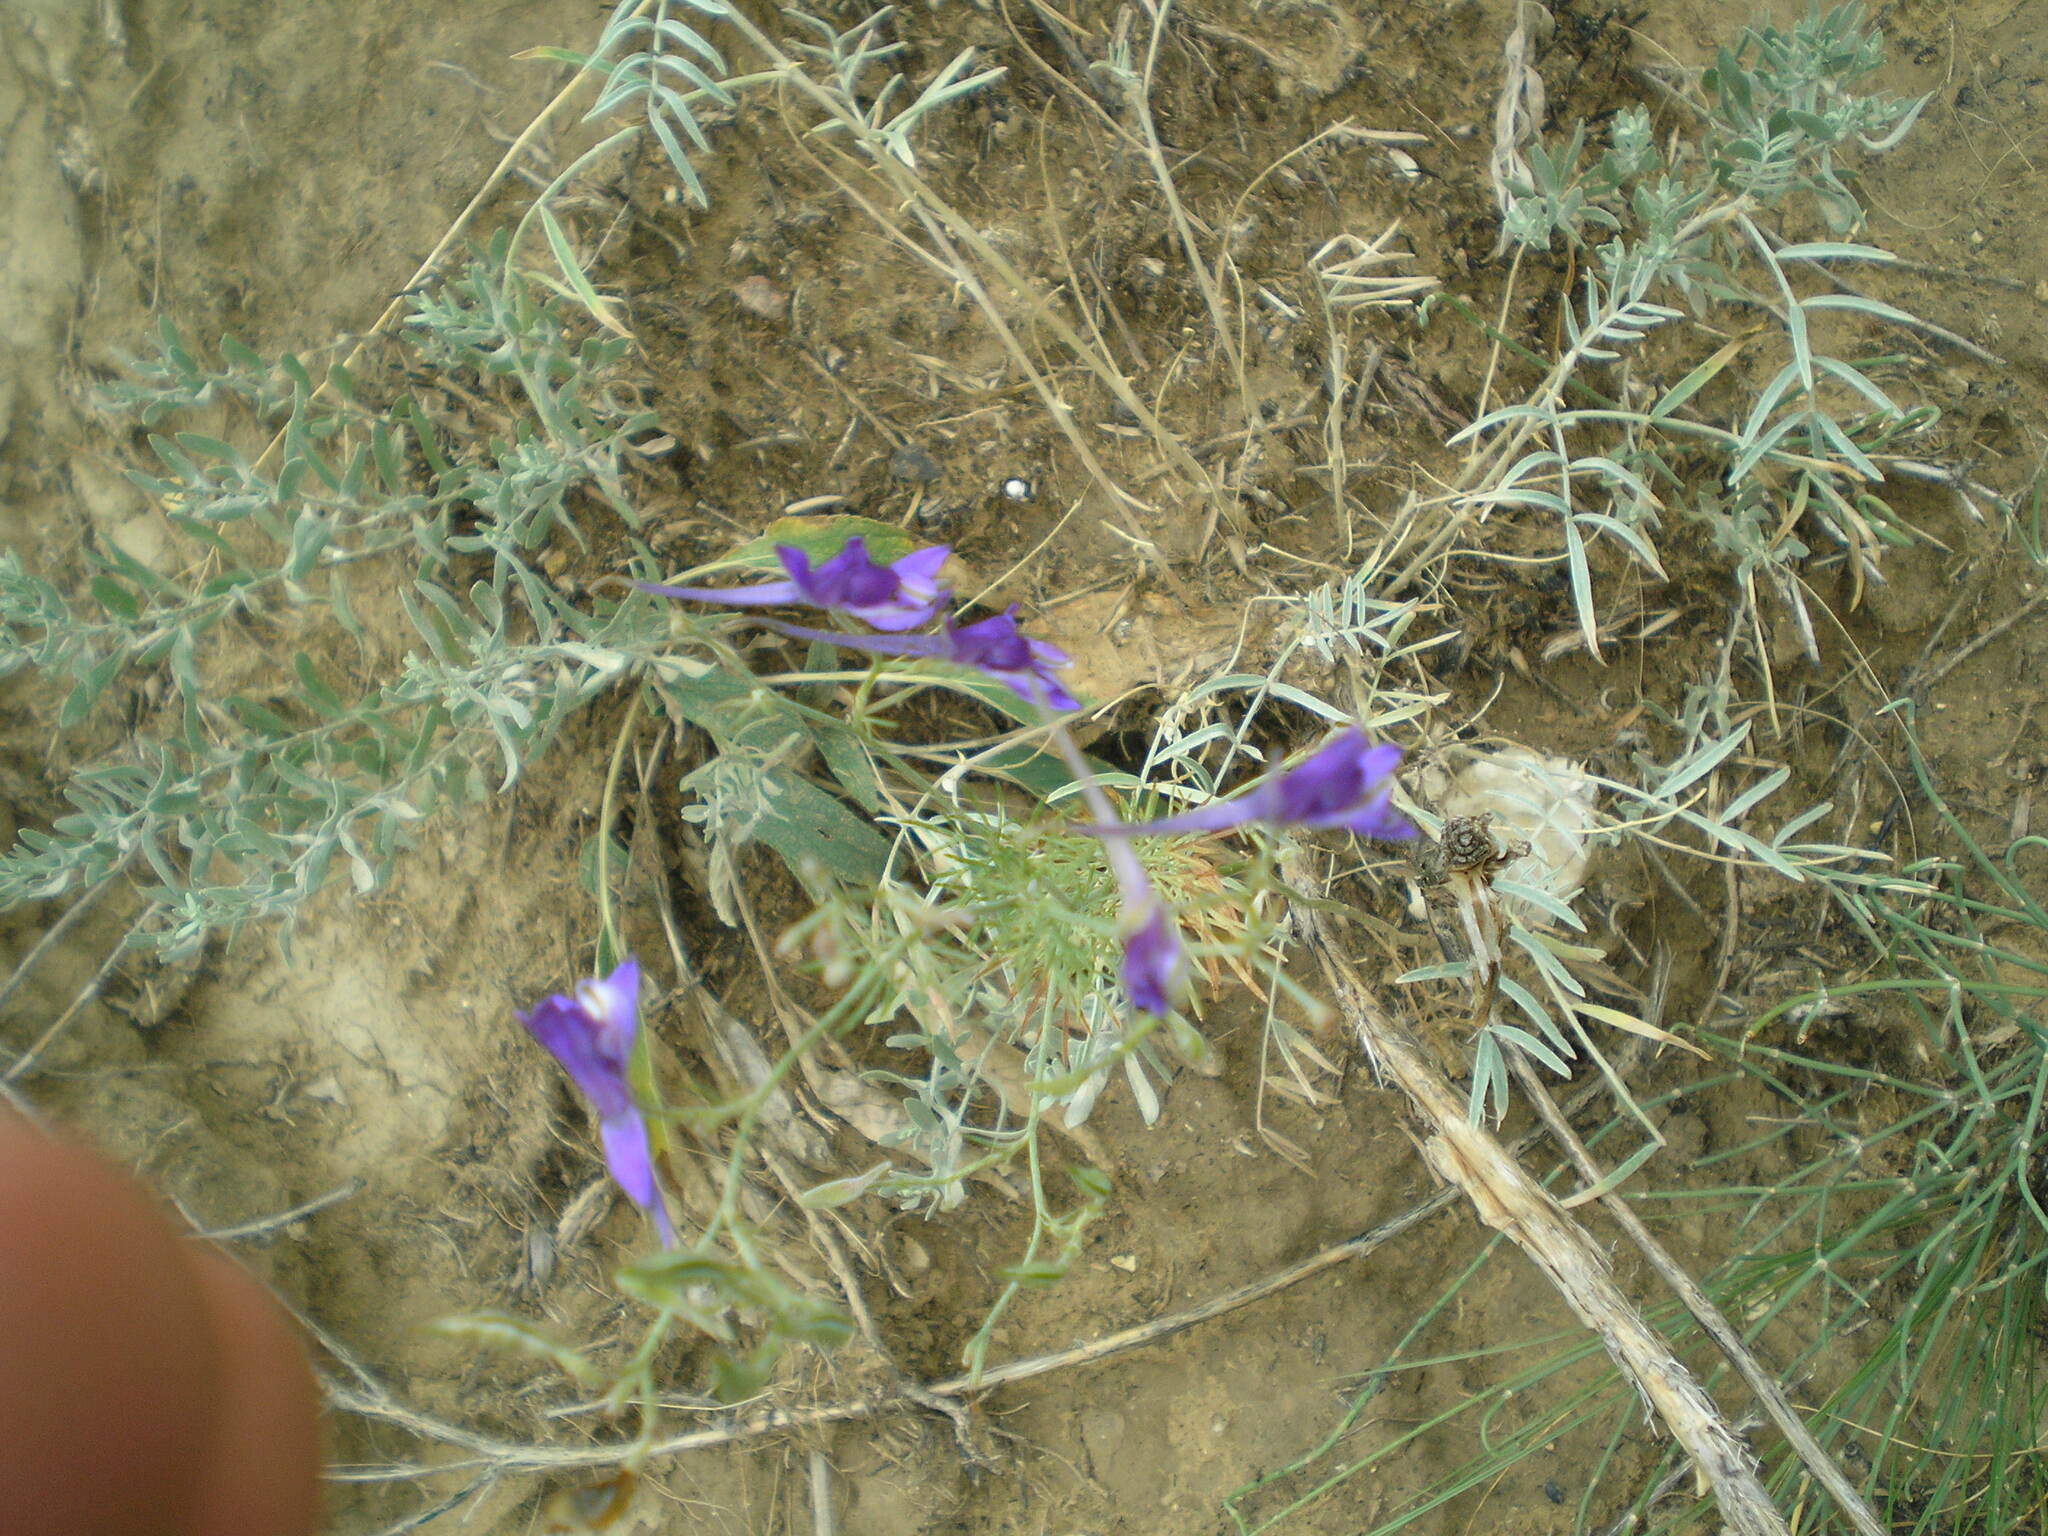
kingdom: Plantae
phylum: Tracheophyta
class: Magnoliopsida
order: Ranunculales
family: Ranunculaceae
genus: Delphinium
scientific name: Delphinium consolida
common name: Branching larkspur
